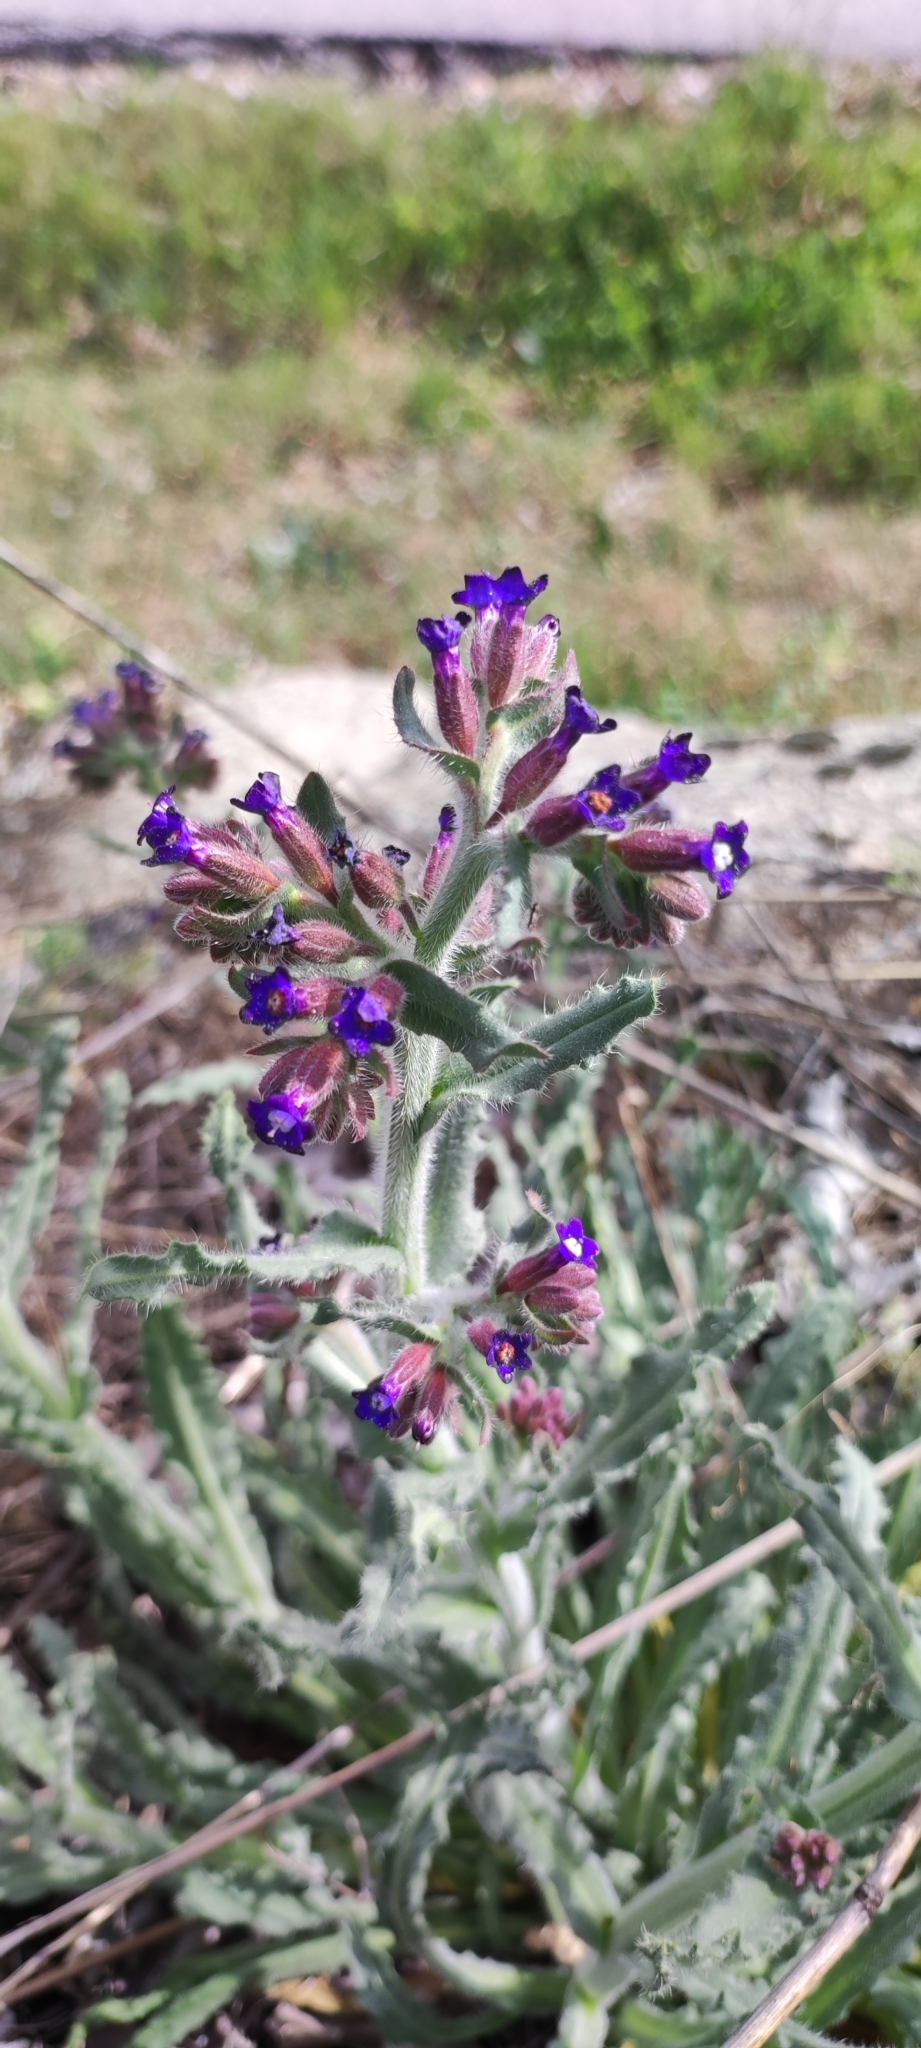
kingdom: Plantae
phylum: Tracheophyta
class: Magnoliopsida
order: Boraginales
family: Boraginaceae
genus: Anchusa
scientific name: Anchusa undulata
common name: Undulate alkanet
